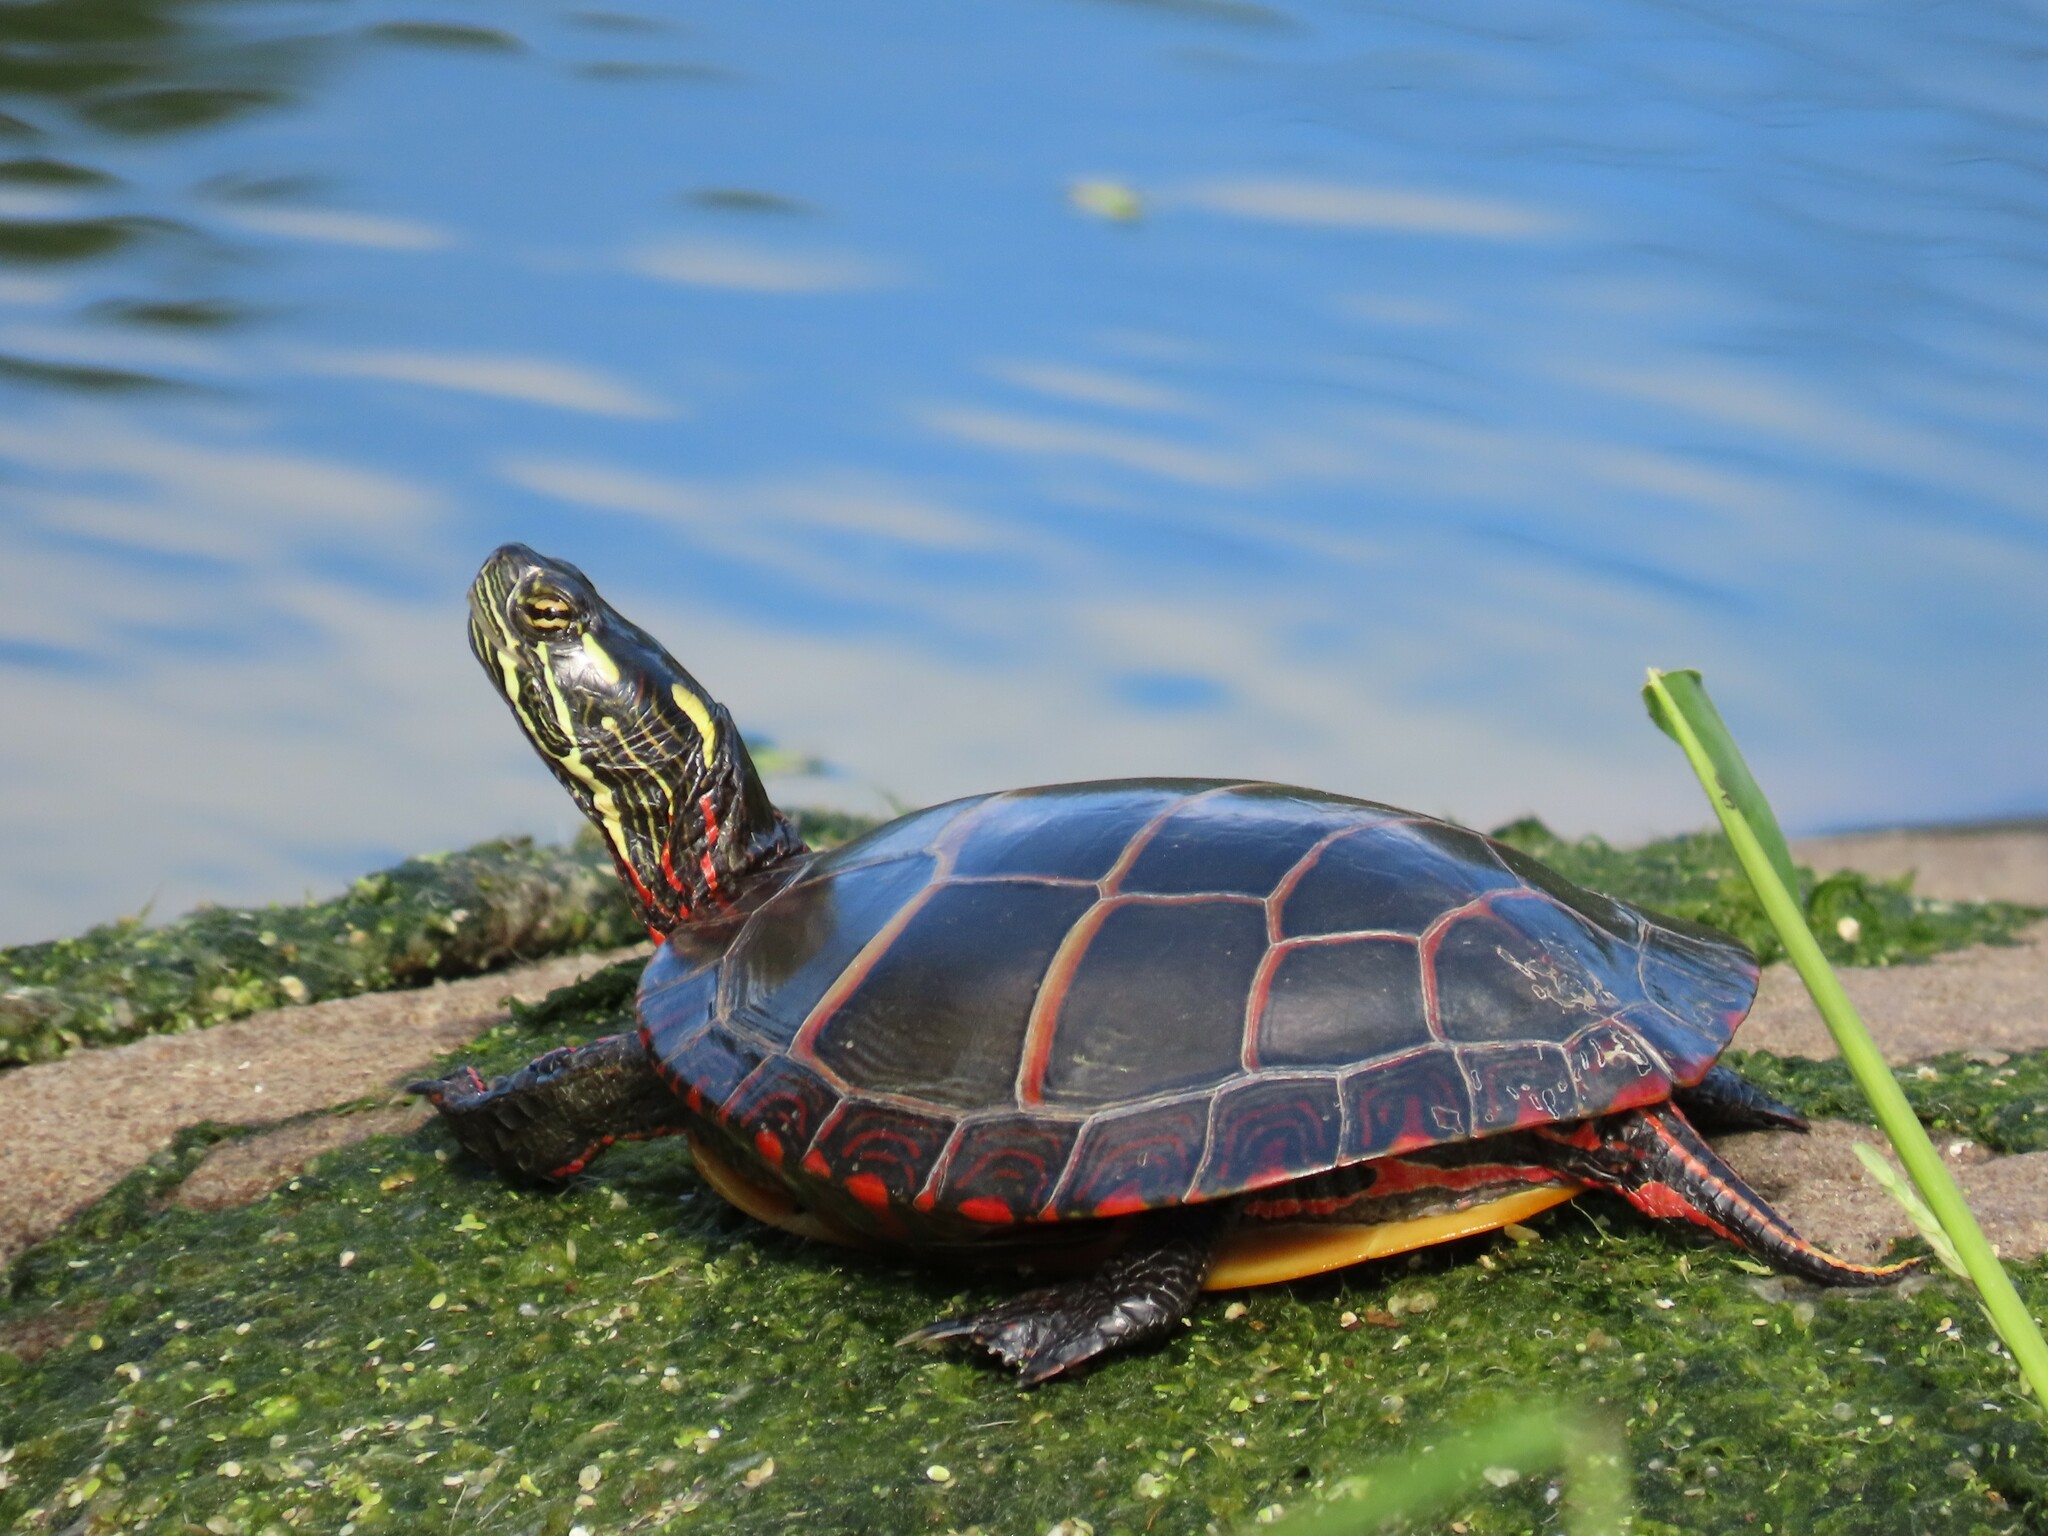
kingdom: Animalia
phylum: Chordata
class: Testudines
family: Emydidae
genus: Chrysemys
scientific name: Chrysemys picta
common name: Painted turtle
